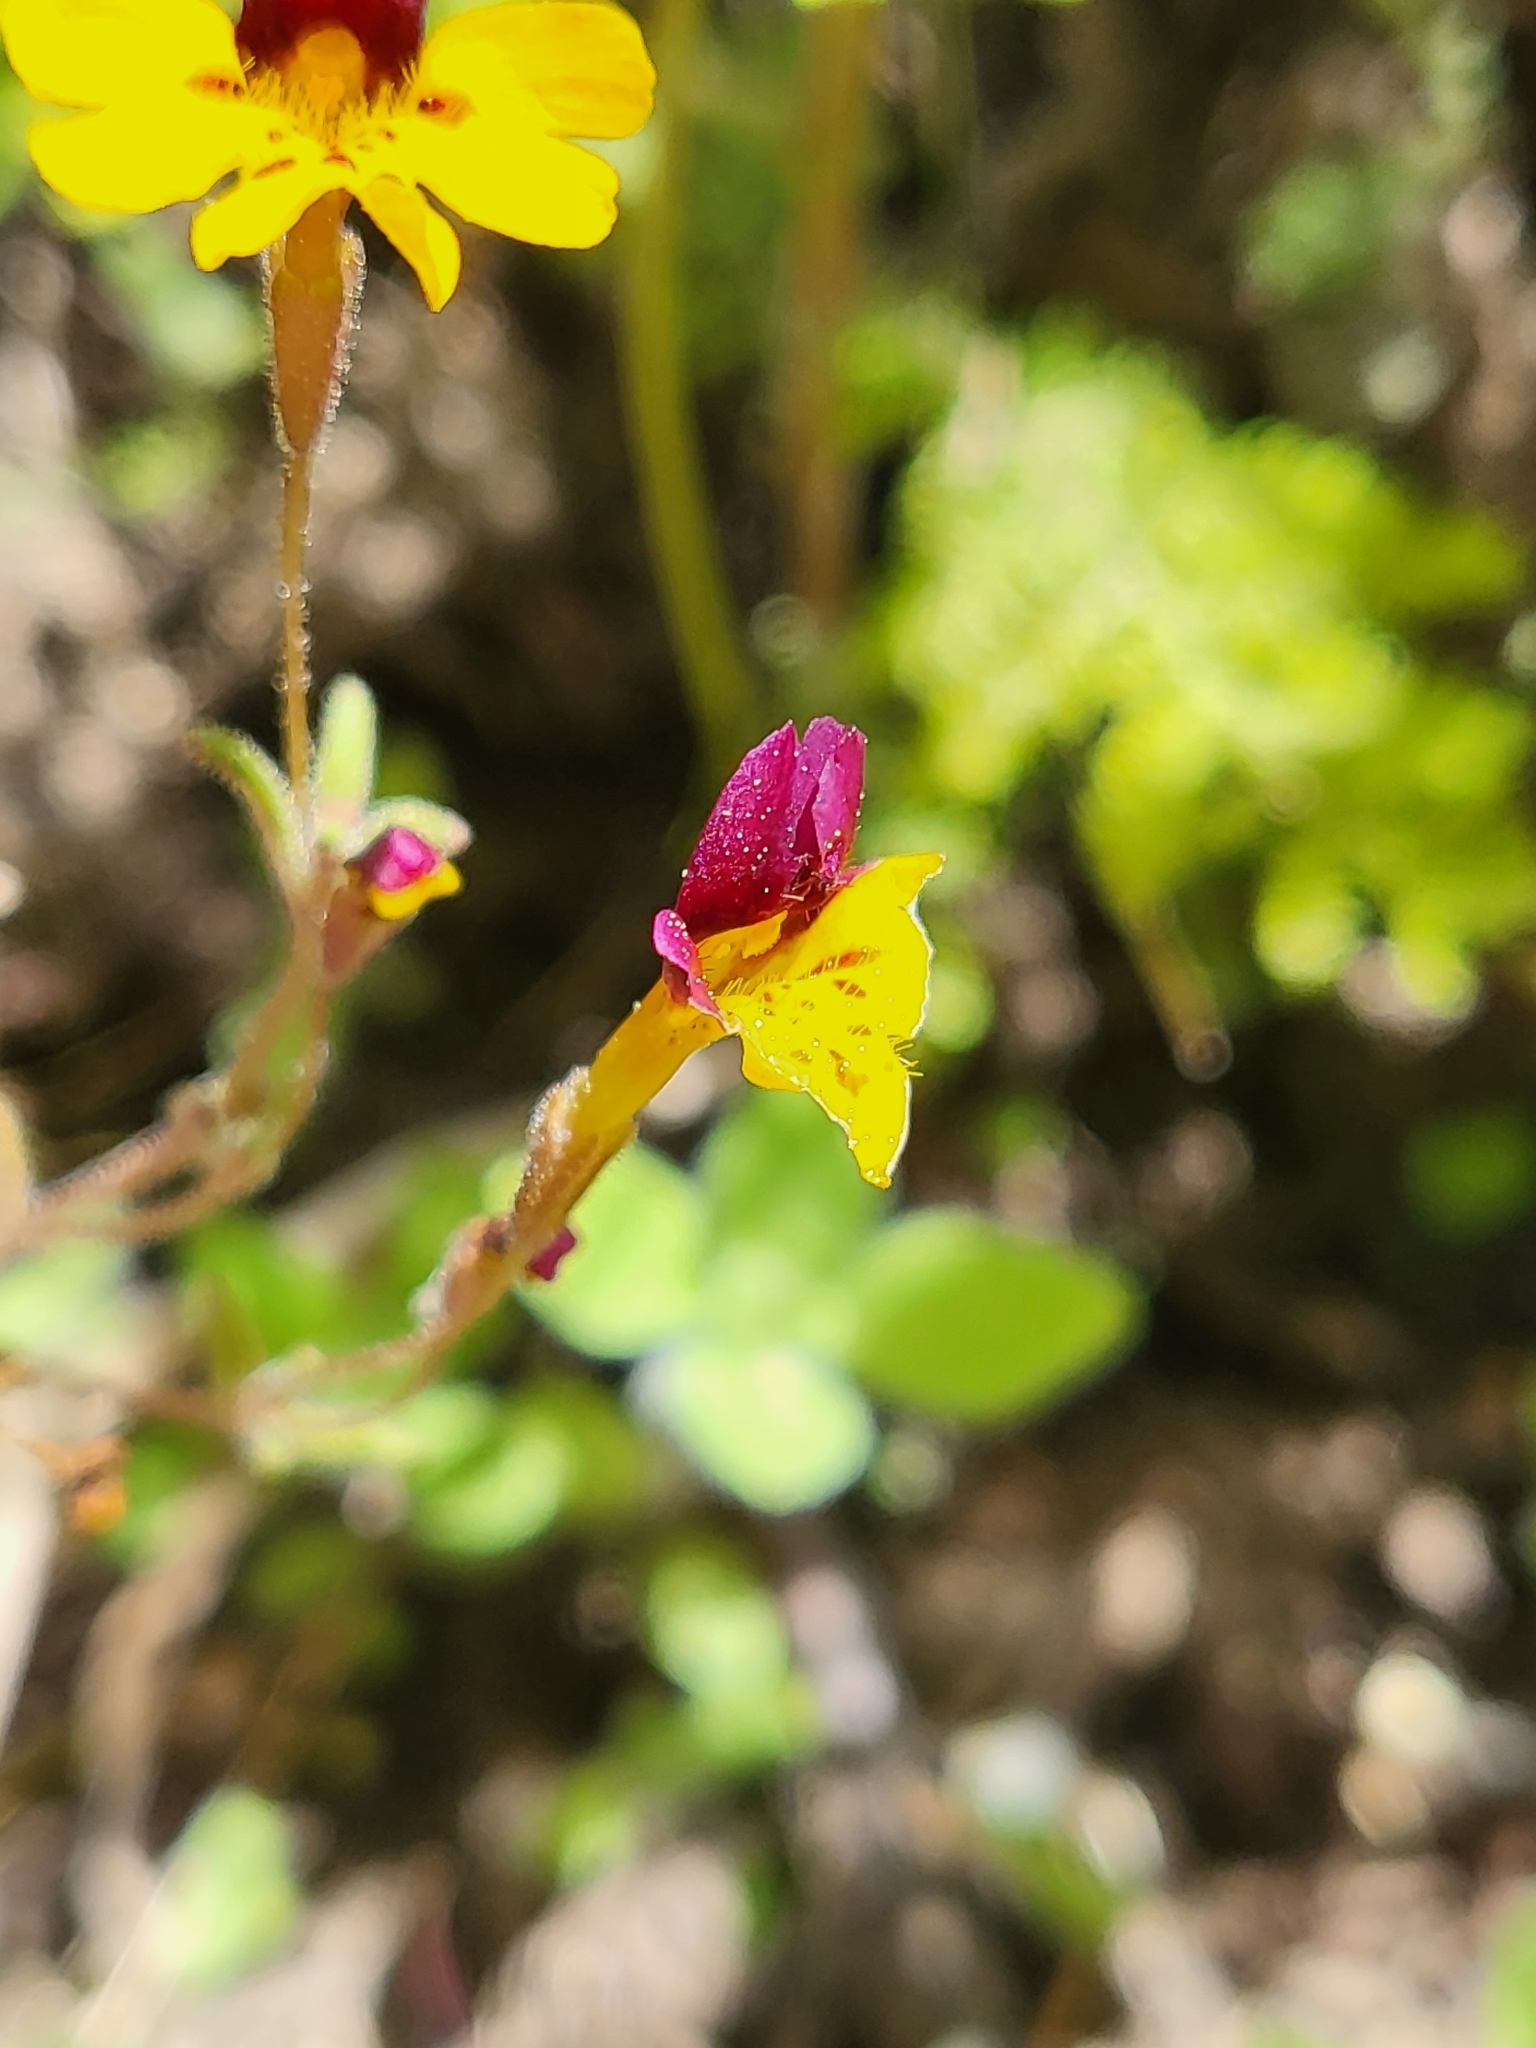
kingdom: Plantae
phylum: Tracheophyta
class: Magnoliopsida
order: Lamiales
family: Phrymaceae
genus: Erythranthe
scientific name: Erythranthe barbata
